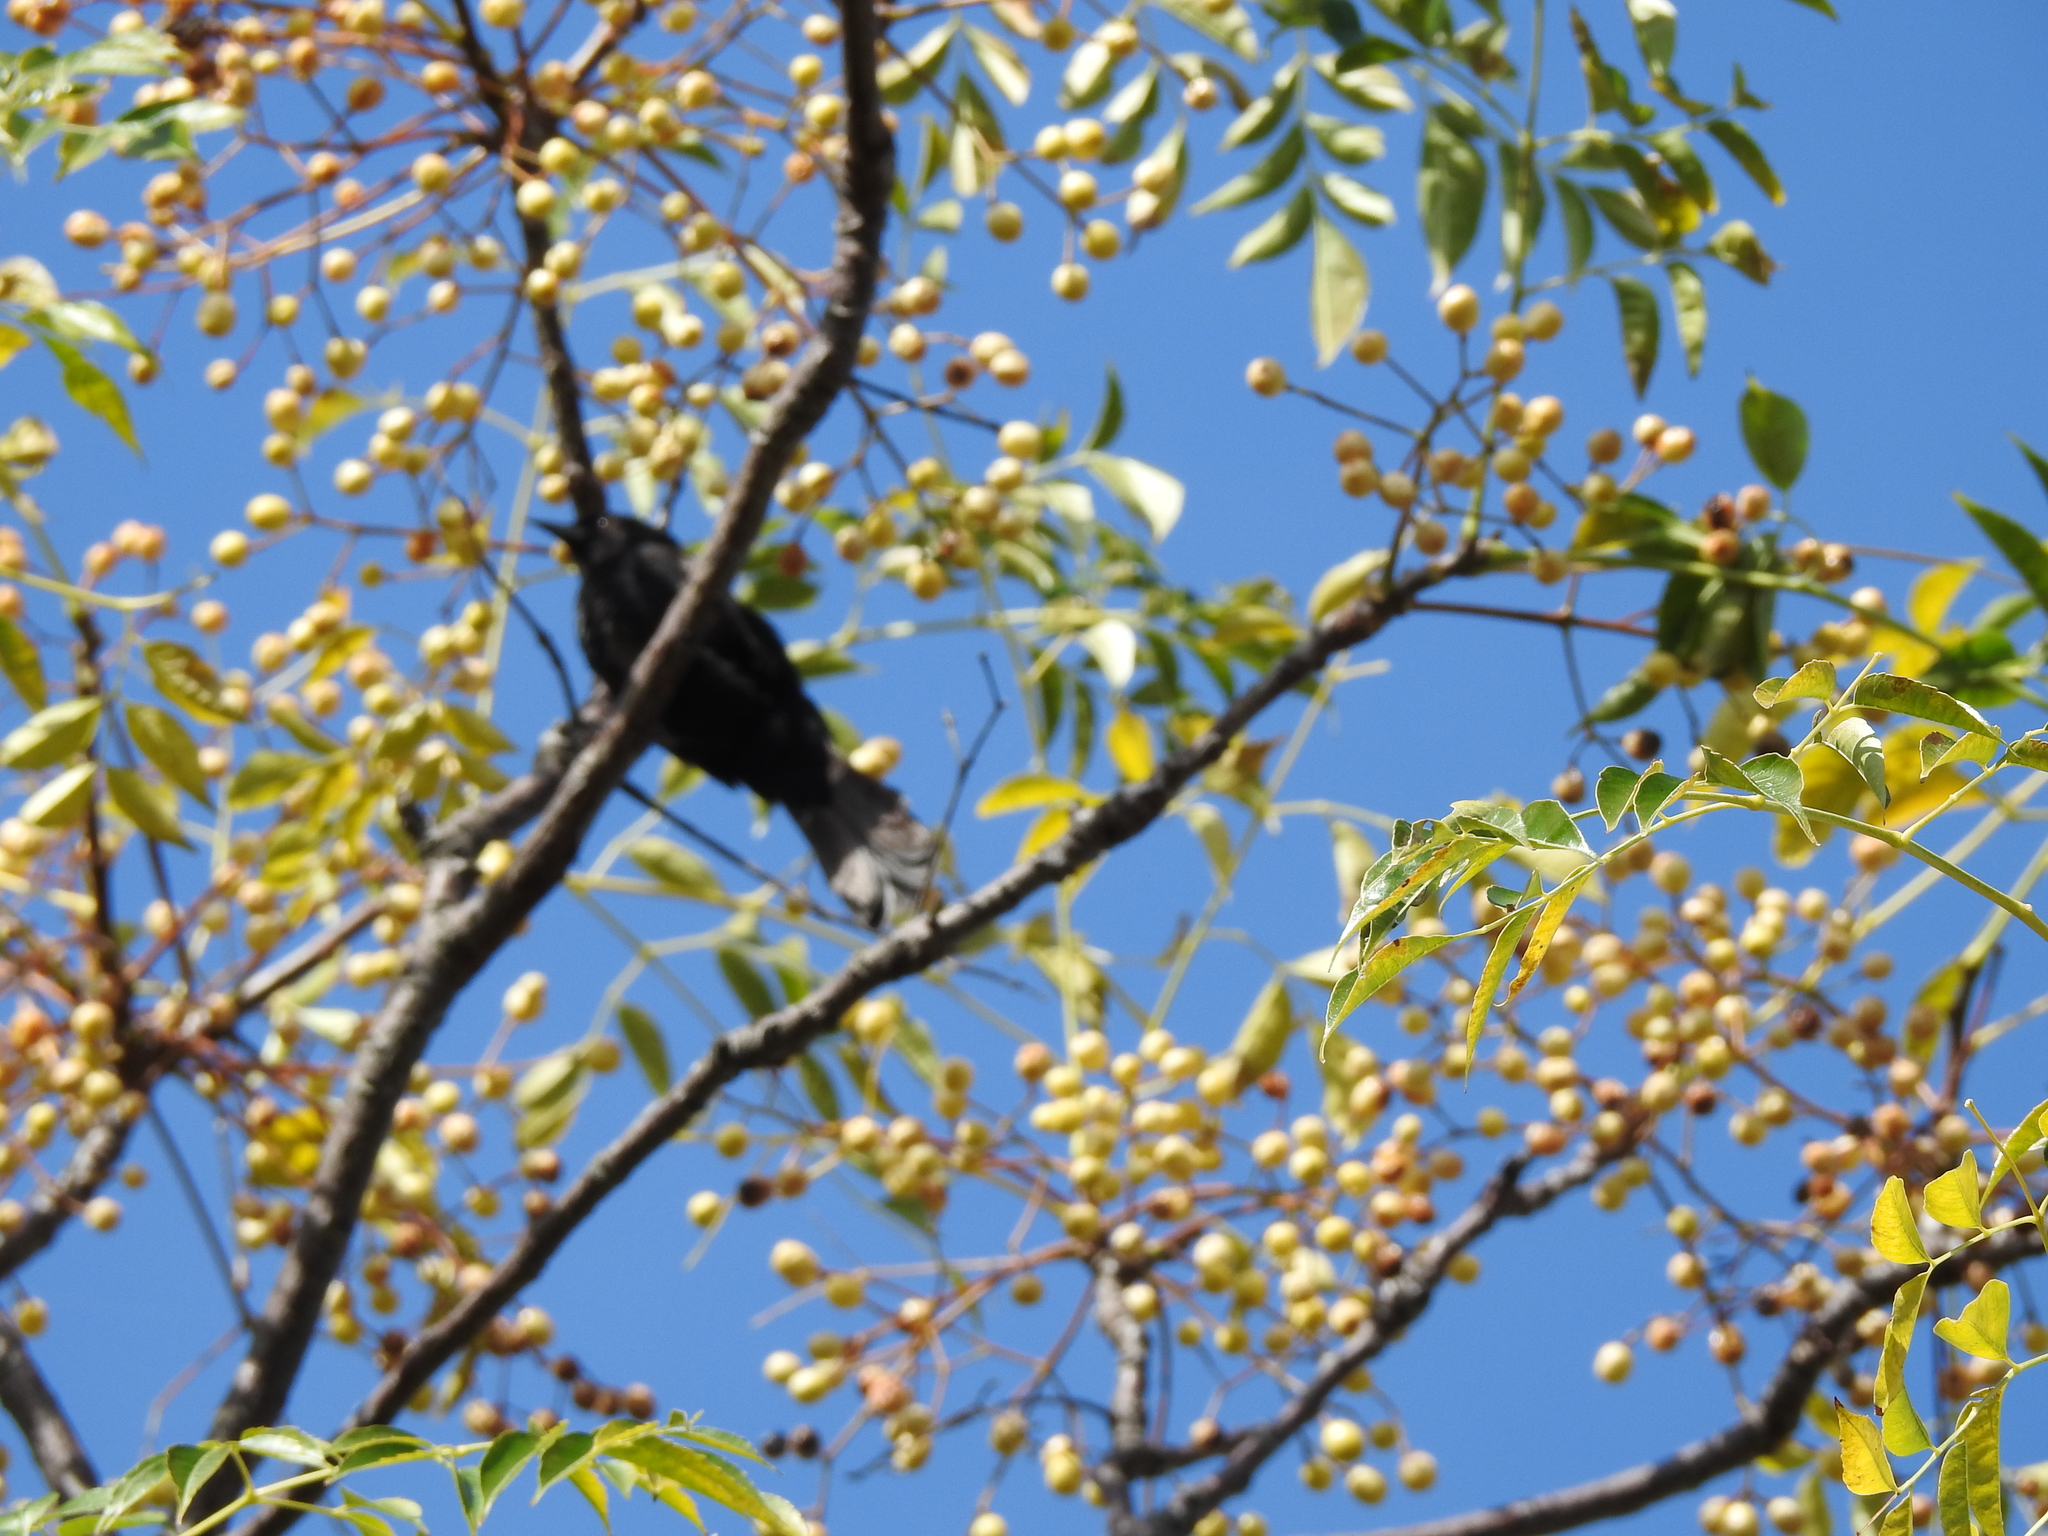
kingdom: Animalia
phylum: Chordata
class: Aves
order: Passeriformes
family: Icteridae
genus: Icterus
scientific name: Icterus cayanensis
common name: Epaulet oriole
